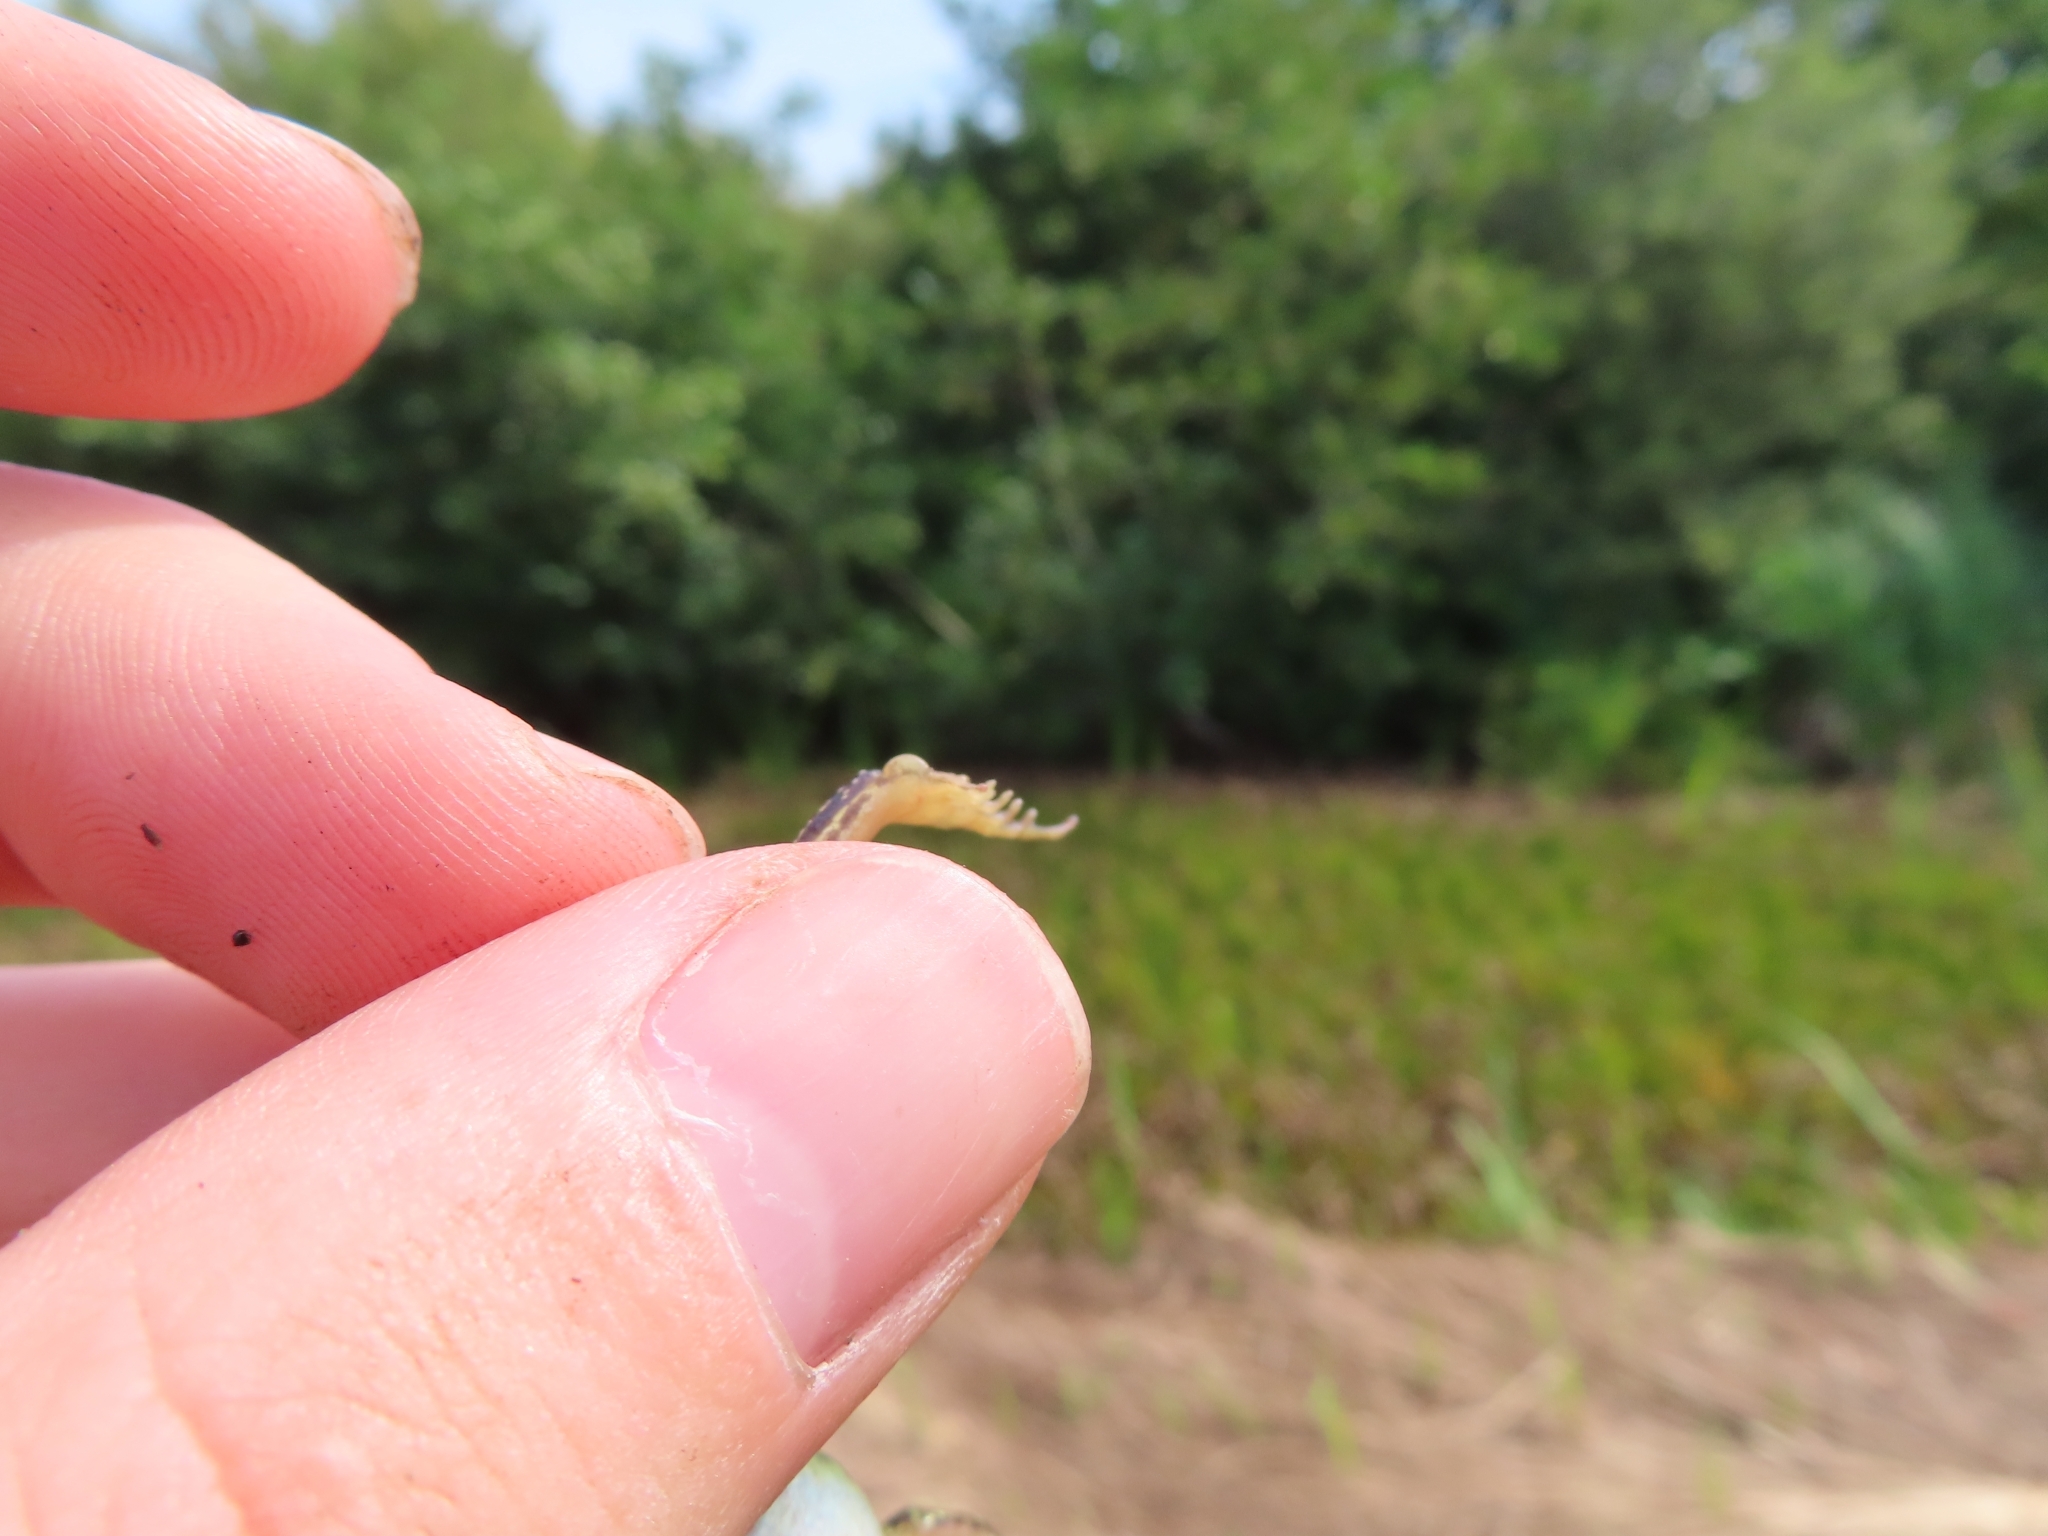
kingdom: Animalia
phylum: Chordata
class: Amphibia
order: Anura
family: Ranidae
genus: Pelophylax
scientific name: Pelophylax lessonae
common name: Pool frog
